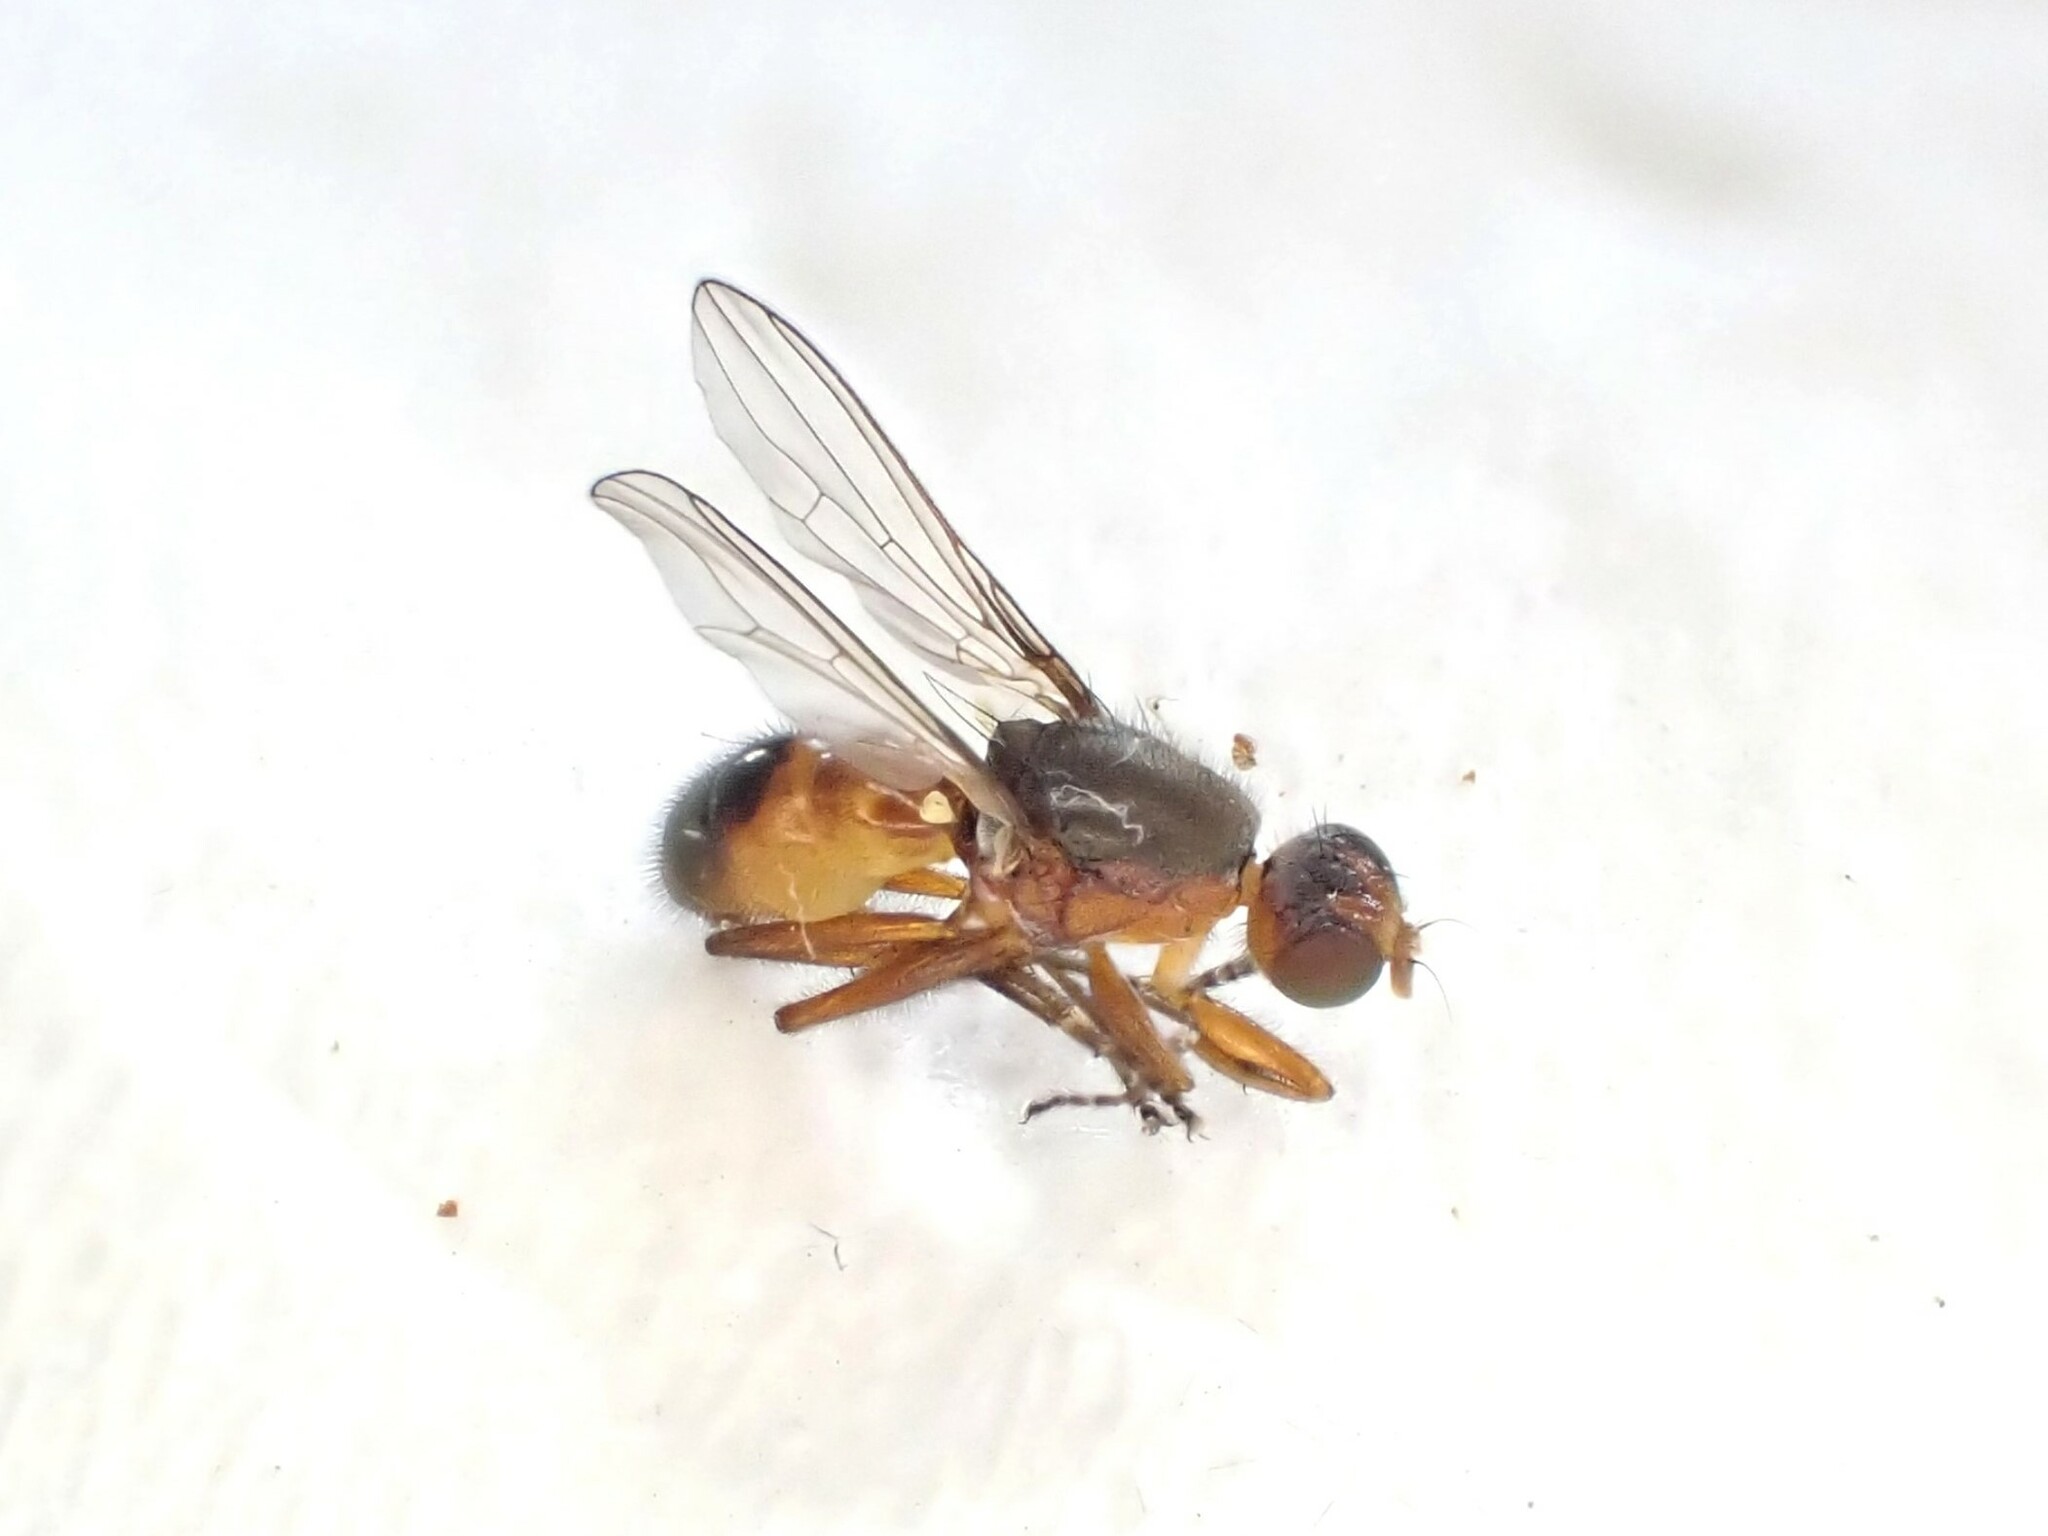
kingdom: Animalia
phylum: Arthropoda
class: Insecta
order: Diptera
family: Sepsidae
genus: Lasionemopoda
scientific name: Lasionemopoda hirsuta
